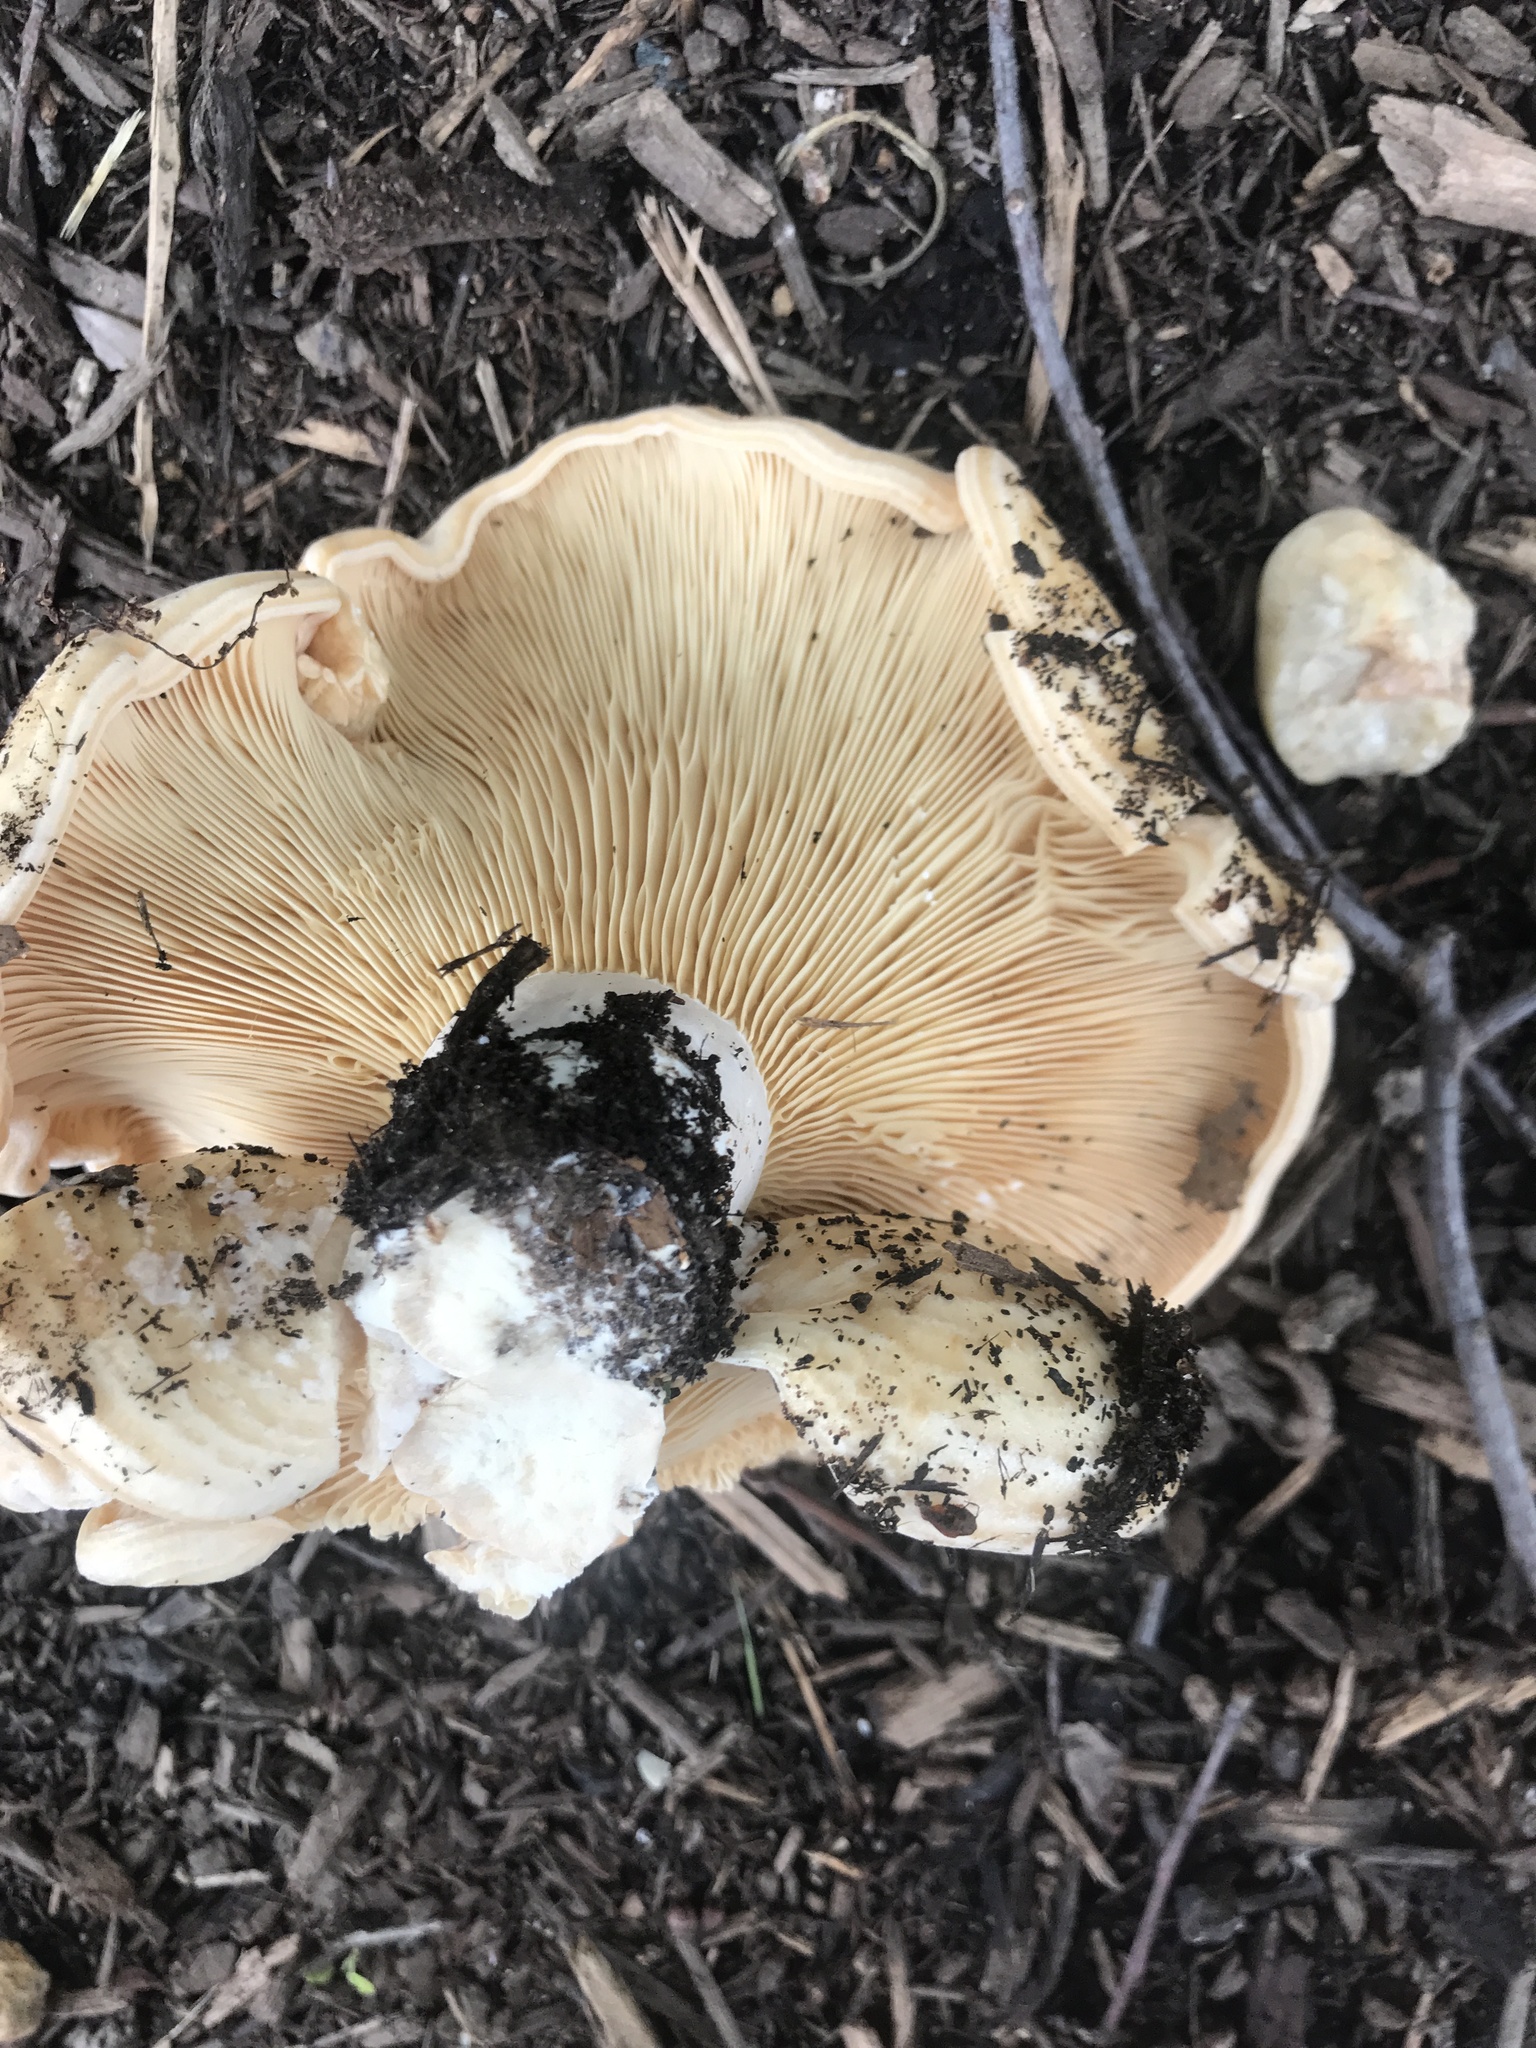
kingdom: Fungi
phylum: Basidiomycota
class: Agaricomycetes
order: Russulales
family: Russulaceae
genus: Lactarius
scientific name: Lactarius yazooensis
